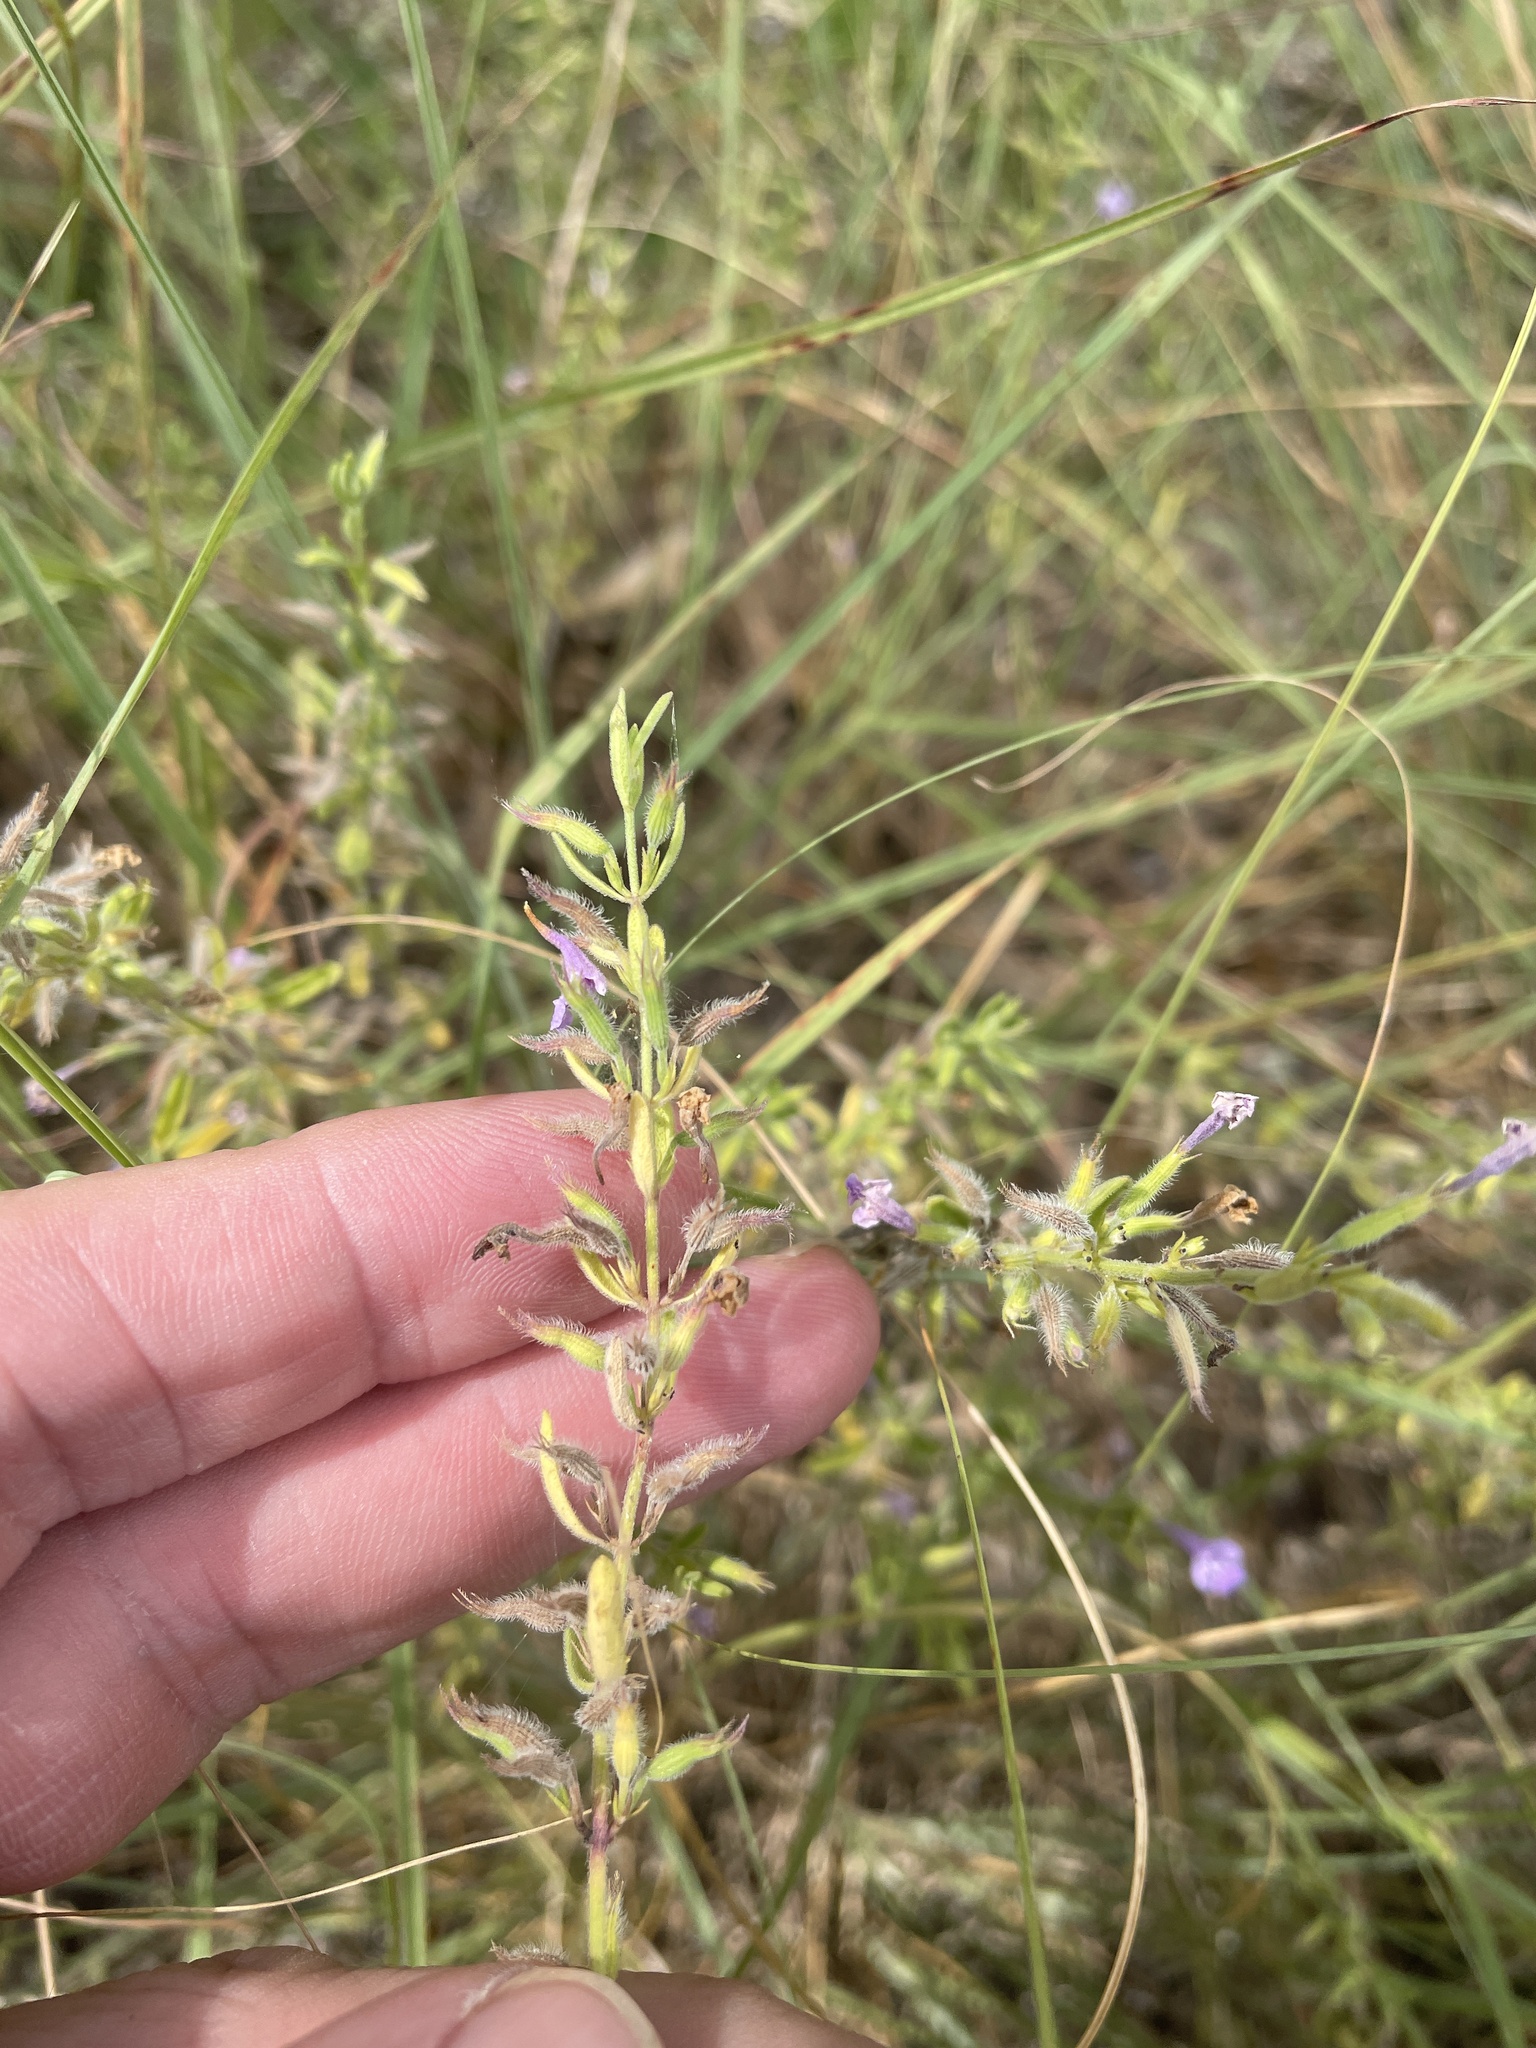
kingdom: Plantae
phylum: Tracheophyta
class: Magnoliopsida
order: Lamiales
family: Lamiaceae
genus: Hedeoma
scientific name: Hedeoma reverchonii
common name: Reverchon's false penny-royal
